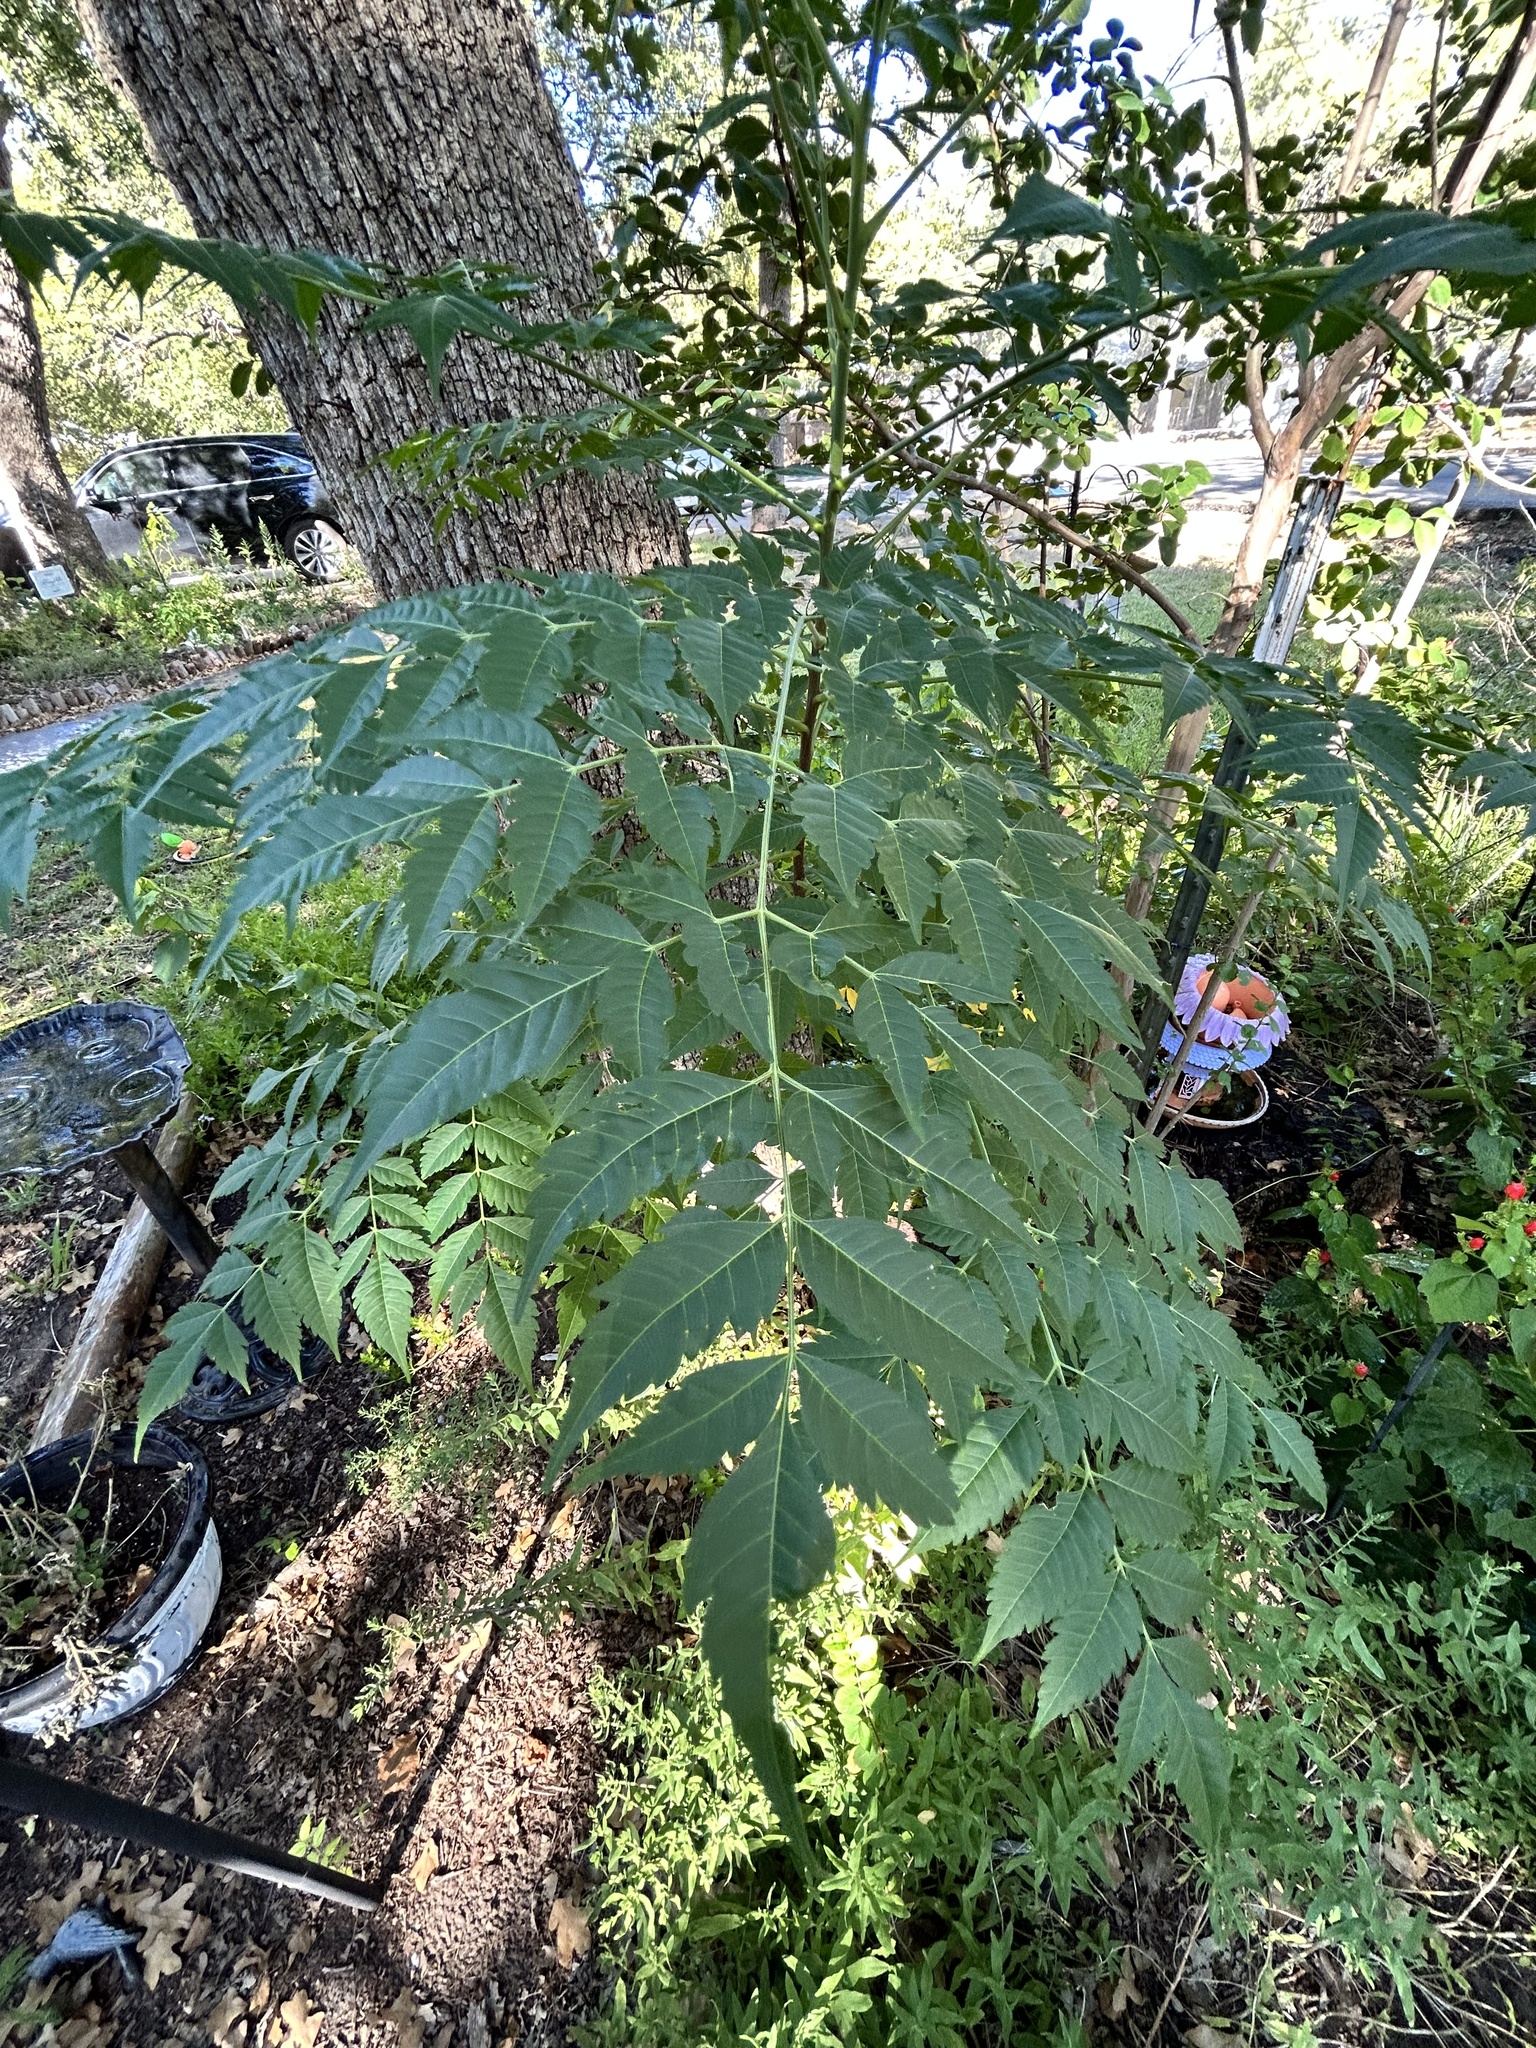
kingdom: Plantae
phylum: Tracheophyta
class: Magnoliopsida
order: Sapindales
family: Meliaceae
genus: Melia
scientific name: Melia azedarach
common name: Chinaberrytree
